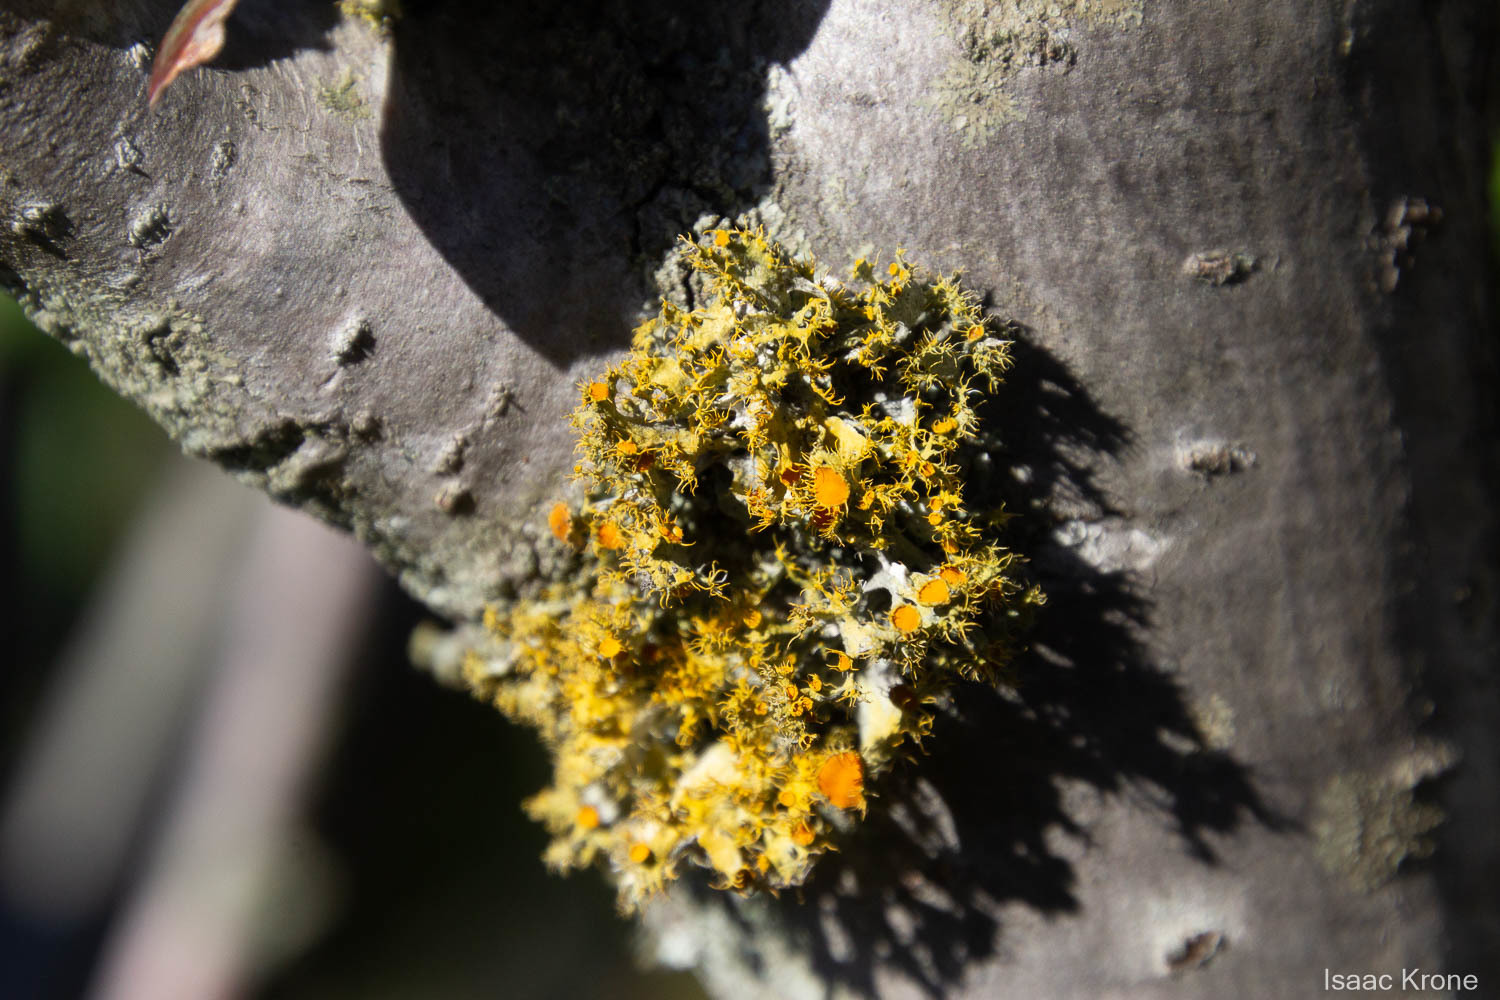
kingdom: Fungi
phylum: Ascomycota
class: Lecanoromycetes
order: Teloschistales
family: Teloschistaceae
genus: Niorma
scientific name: Niorma chrysophthalma
